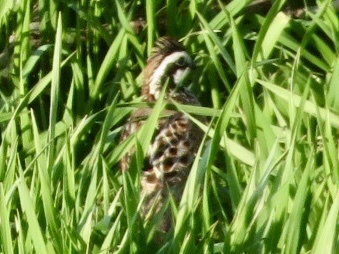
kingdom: Animalia
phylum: Chordata
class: Aves
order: Galliformes
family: Odontophoridae
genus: Colinus
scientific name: Colinus virginianus
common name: Northern bobwhite
